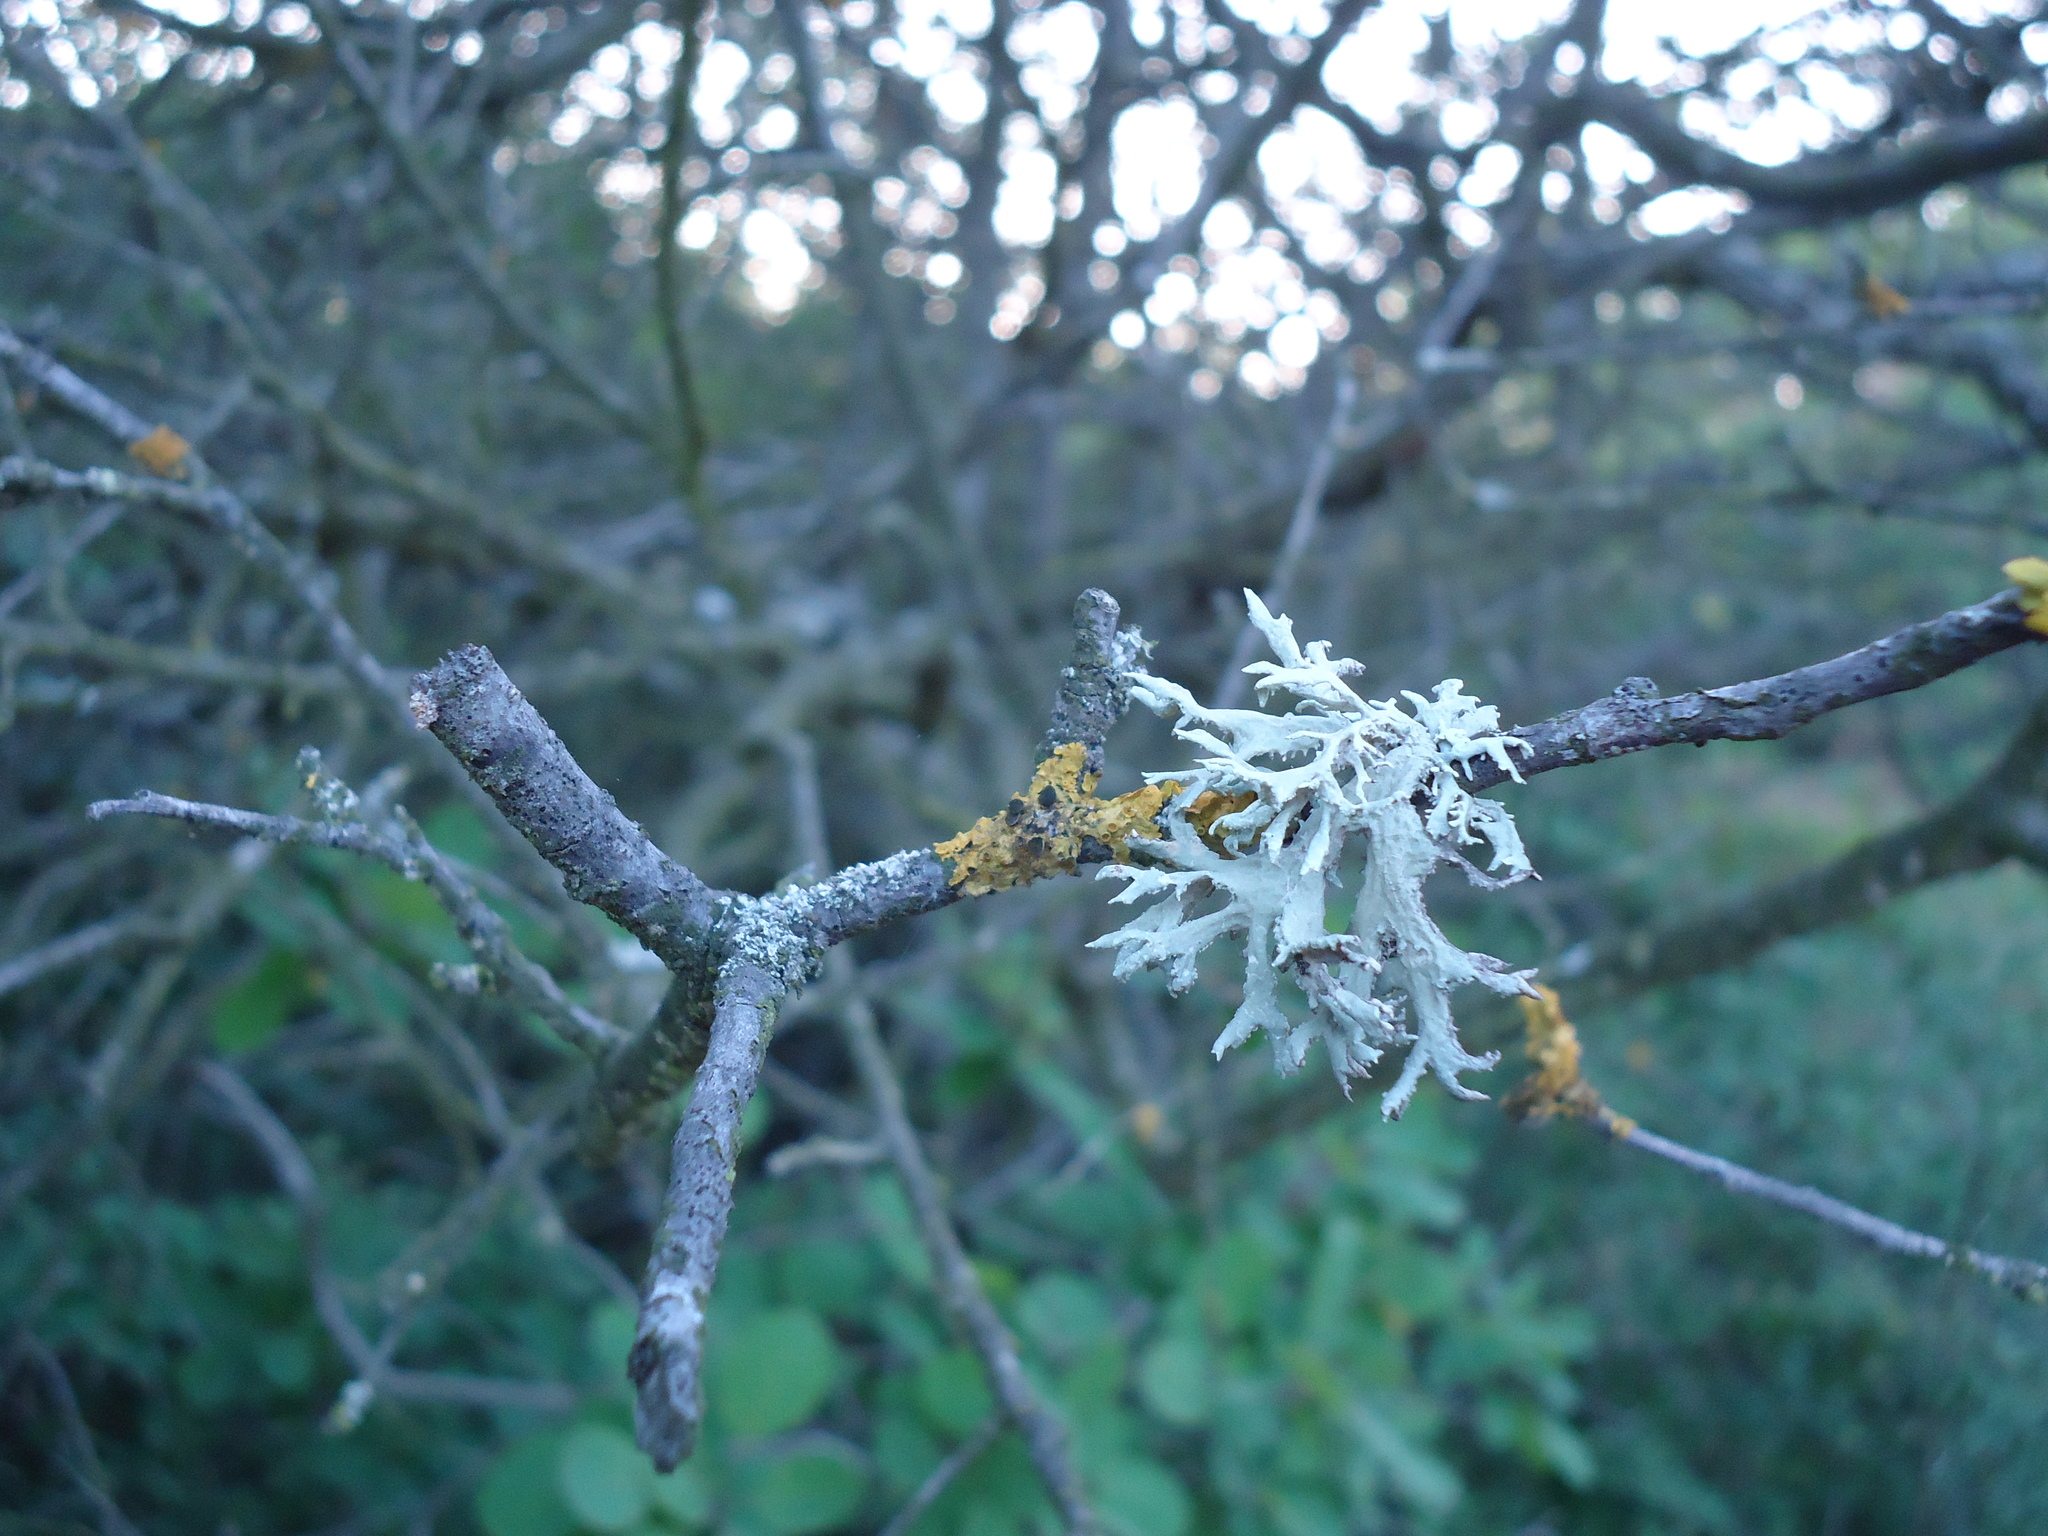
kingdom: Fungi
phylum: Ascomycota
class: Lecanoromycetes
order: Lecanorales
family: Parmeliaceae
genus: Evernia
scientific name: Evernia prunastri
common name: Oak moss
